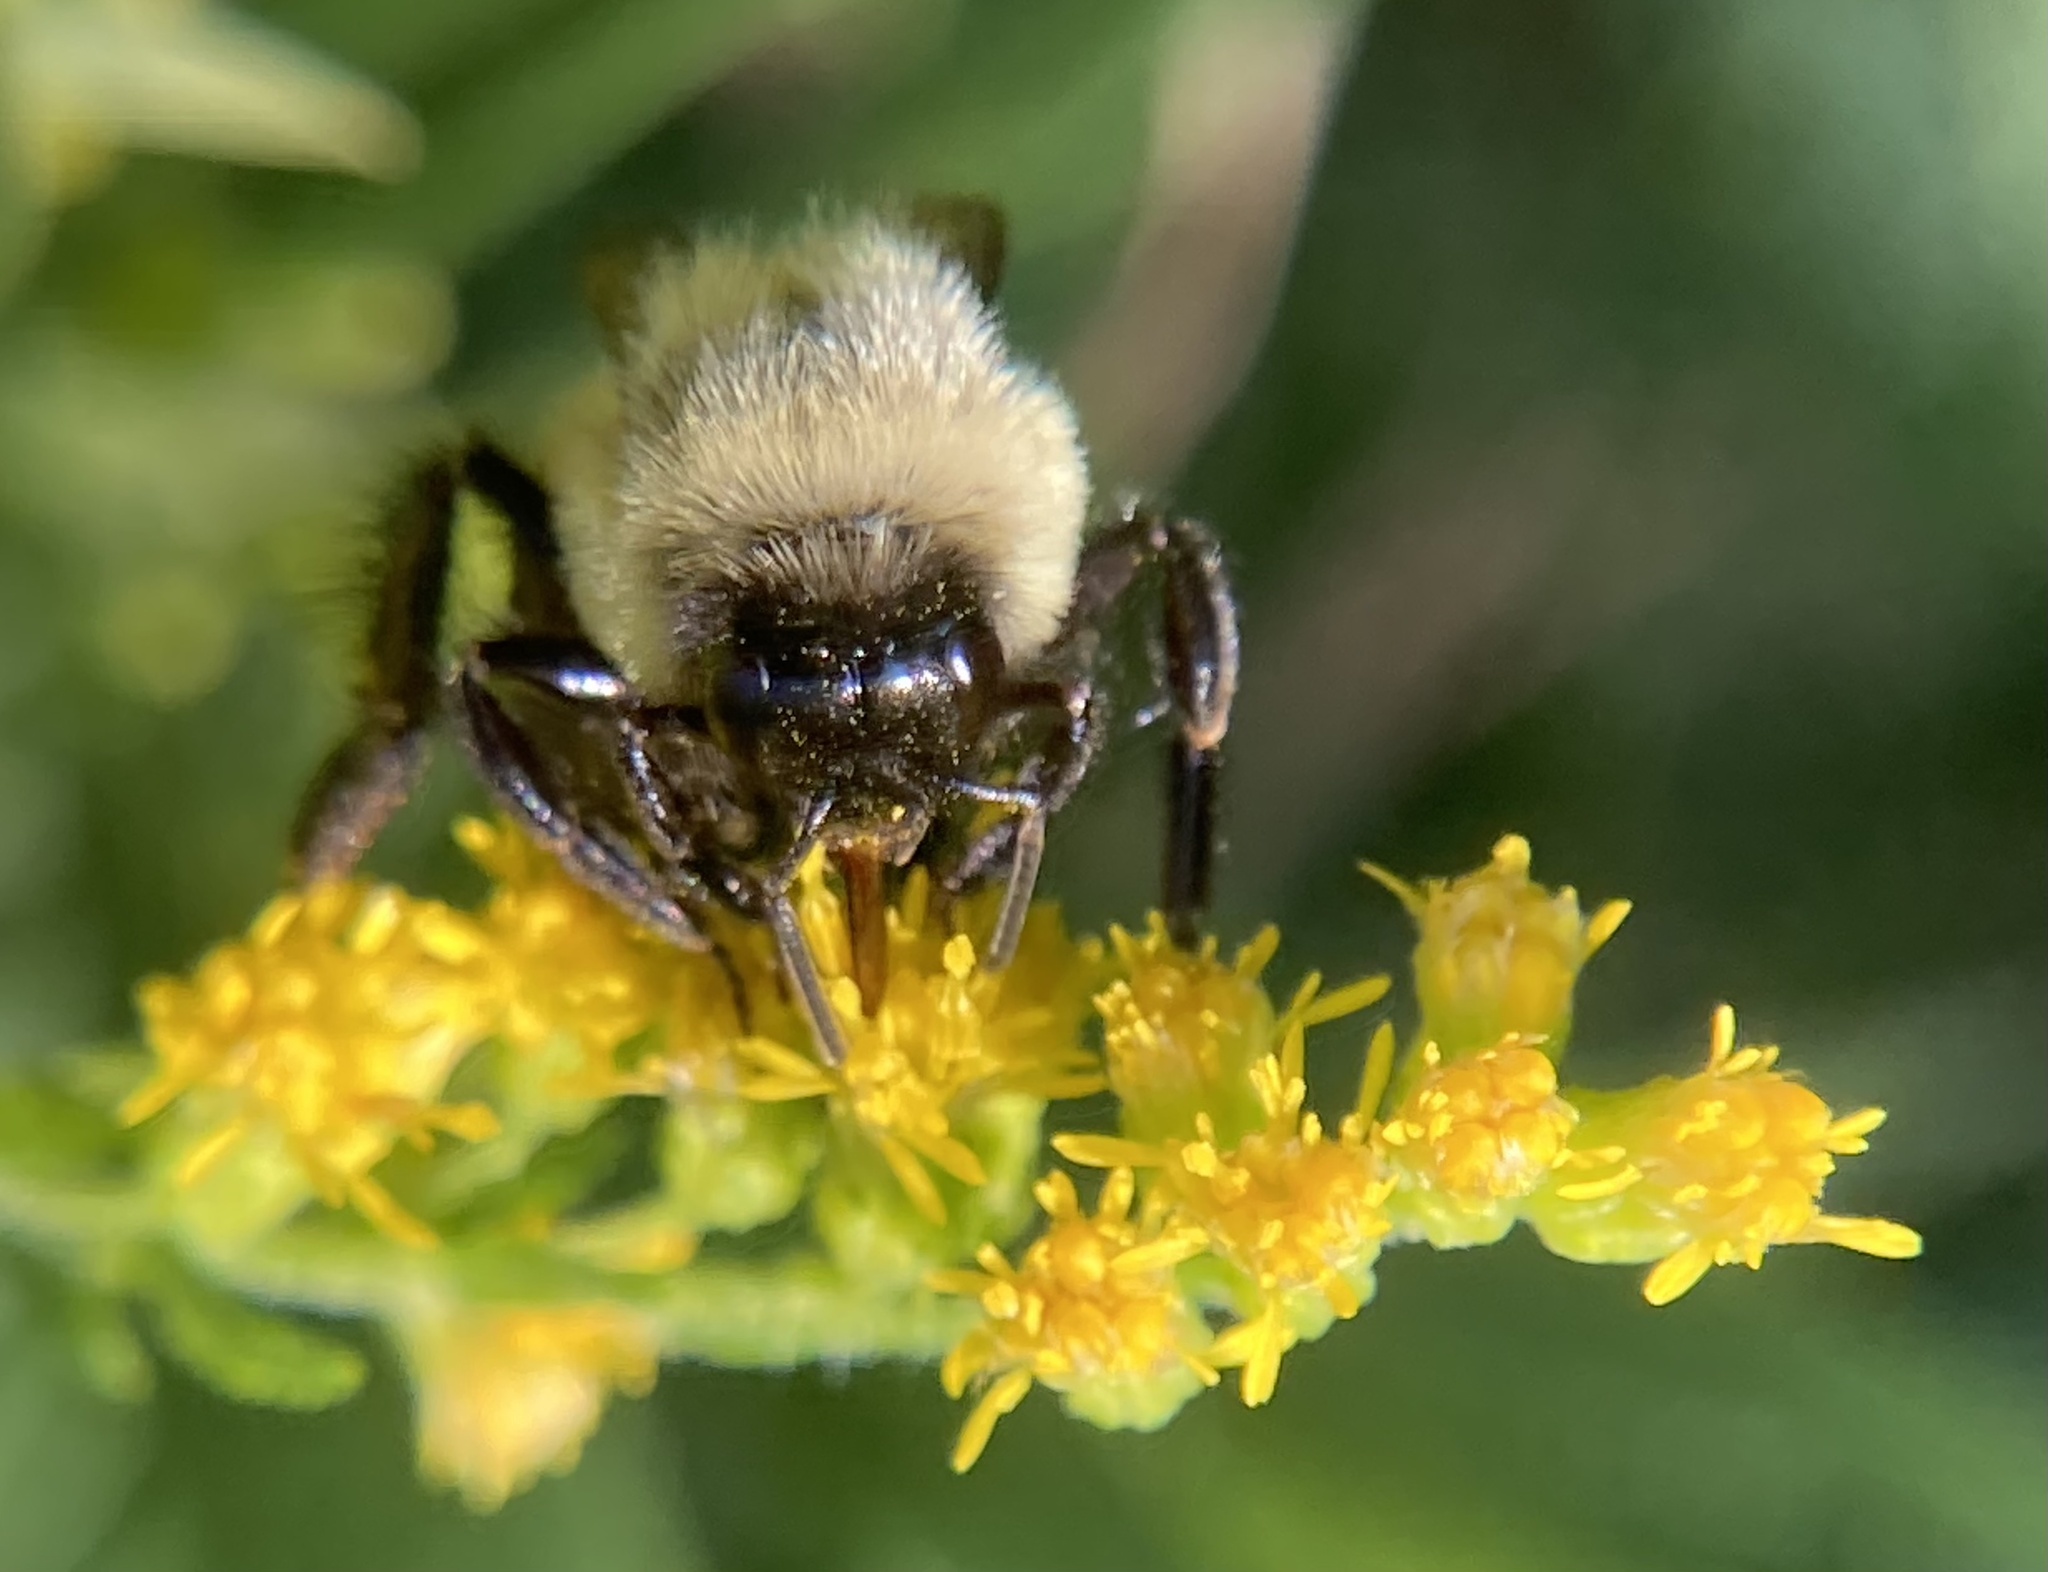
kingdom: Animalia
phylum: Arthropoda
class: Insecta
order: Hymenoptera
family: Apidae
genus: Bombus
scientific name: Bombus impatiens
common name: Common eastern bumble bee
